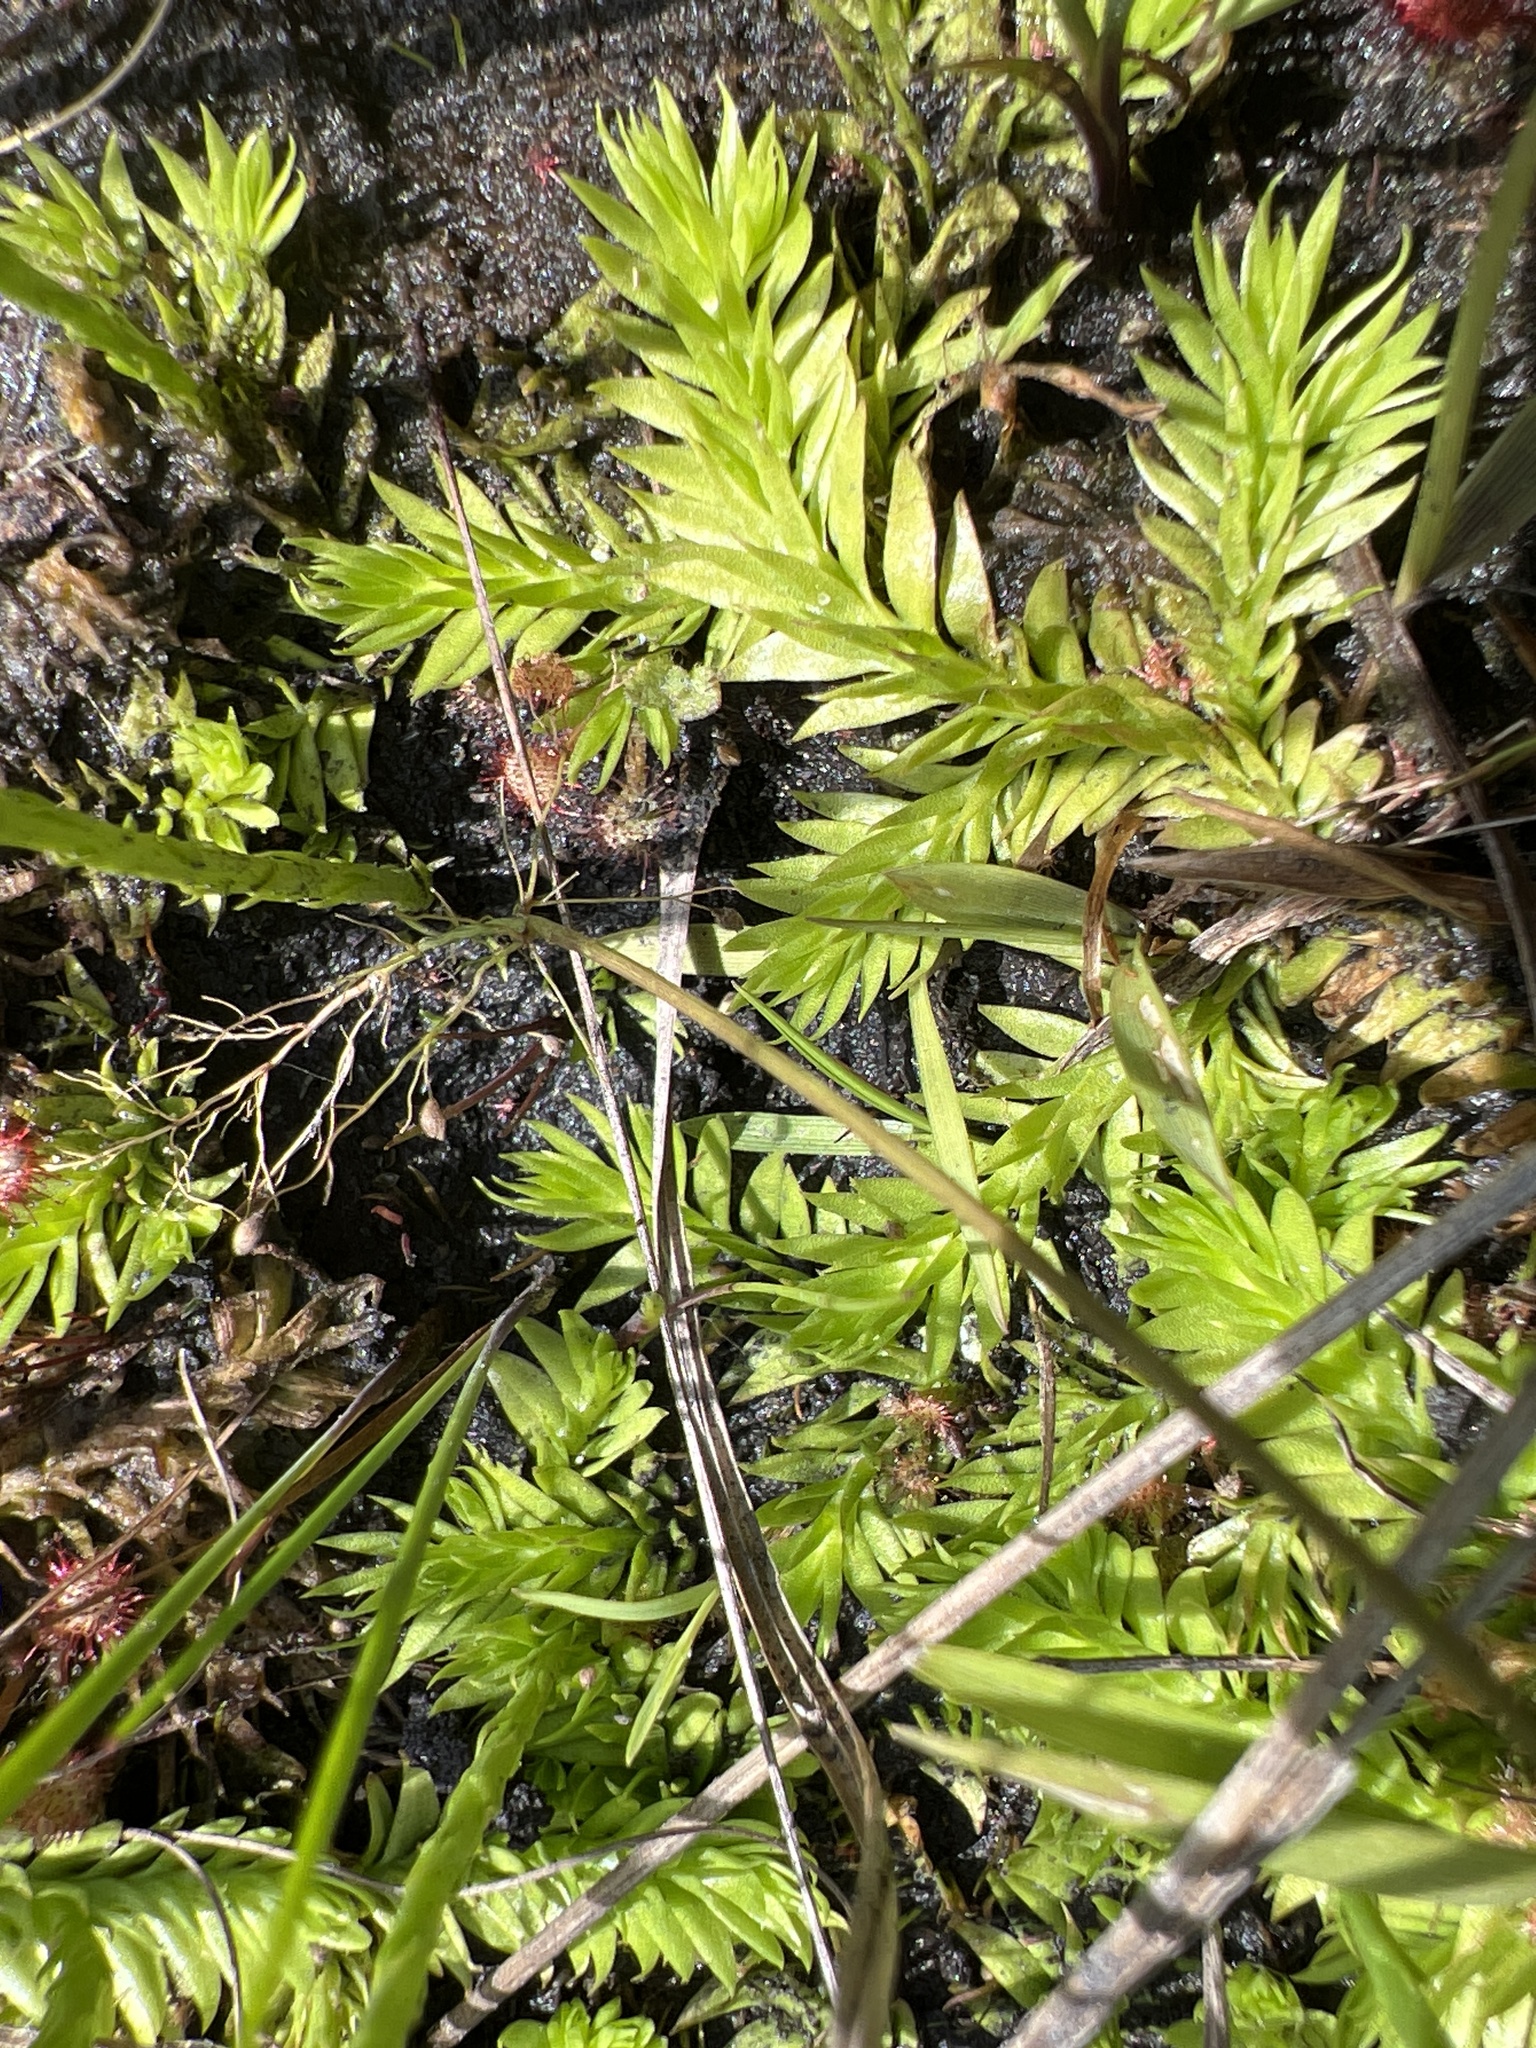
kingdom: Plantae
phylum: Tracheophyta
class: Lycopodiopsida
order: Lycopodiales
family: Lycopodiaceae
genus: Pseudolycopodiella
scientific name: Pseudolycopodiella caroliniana
